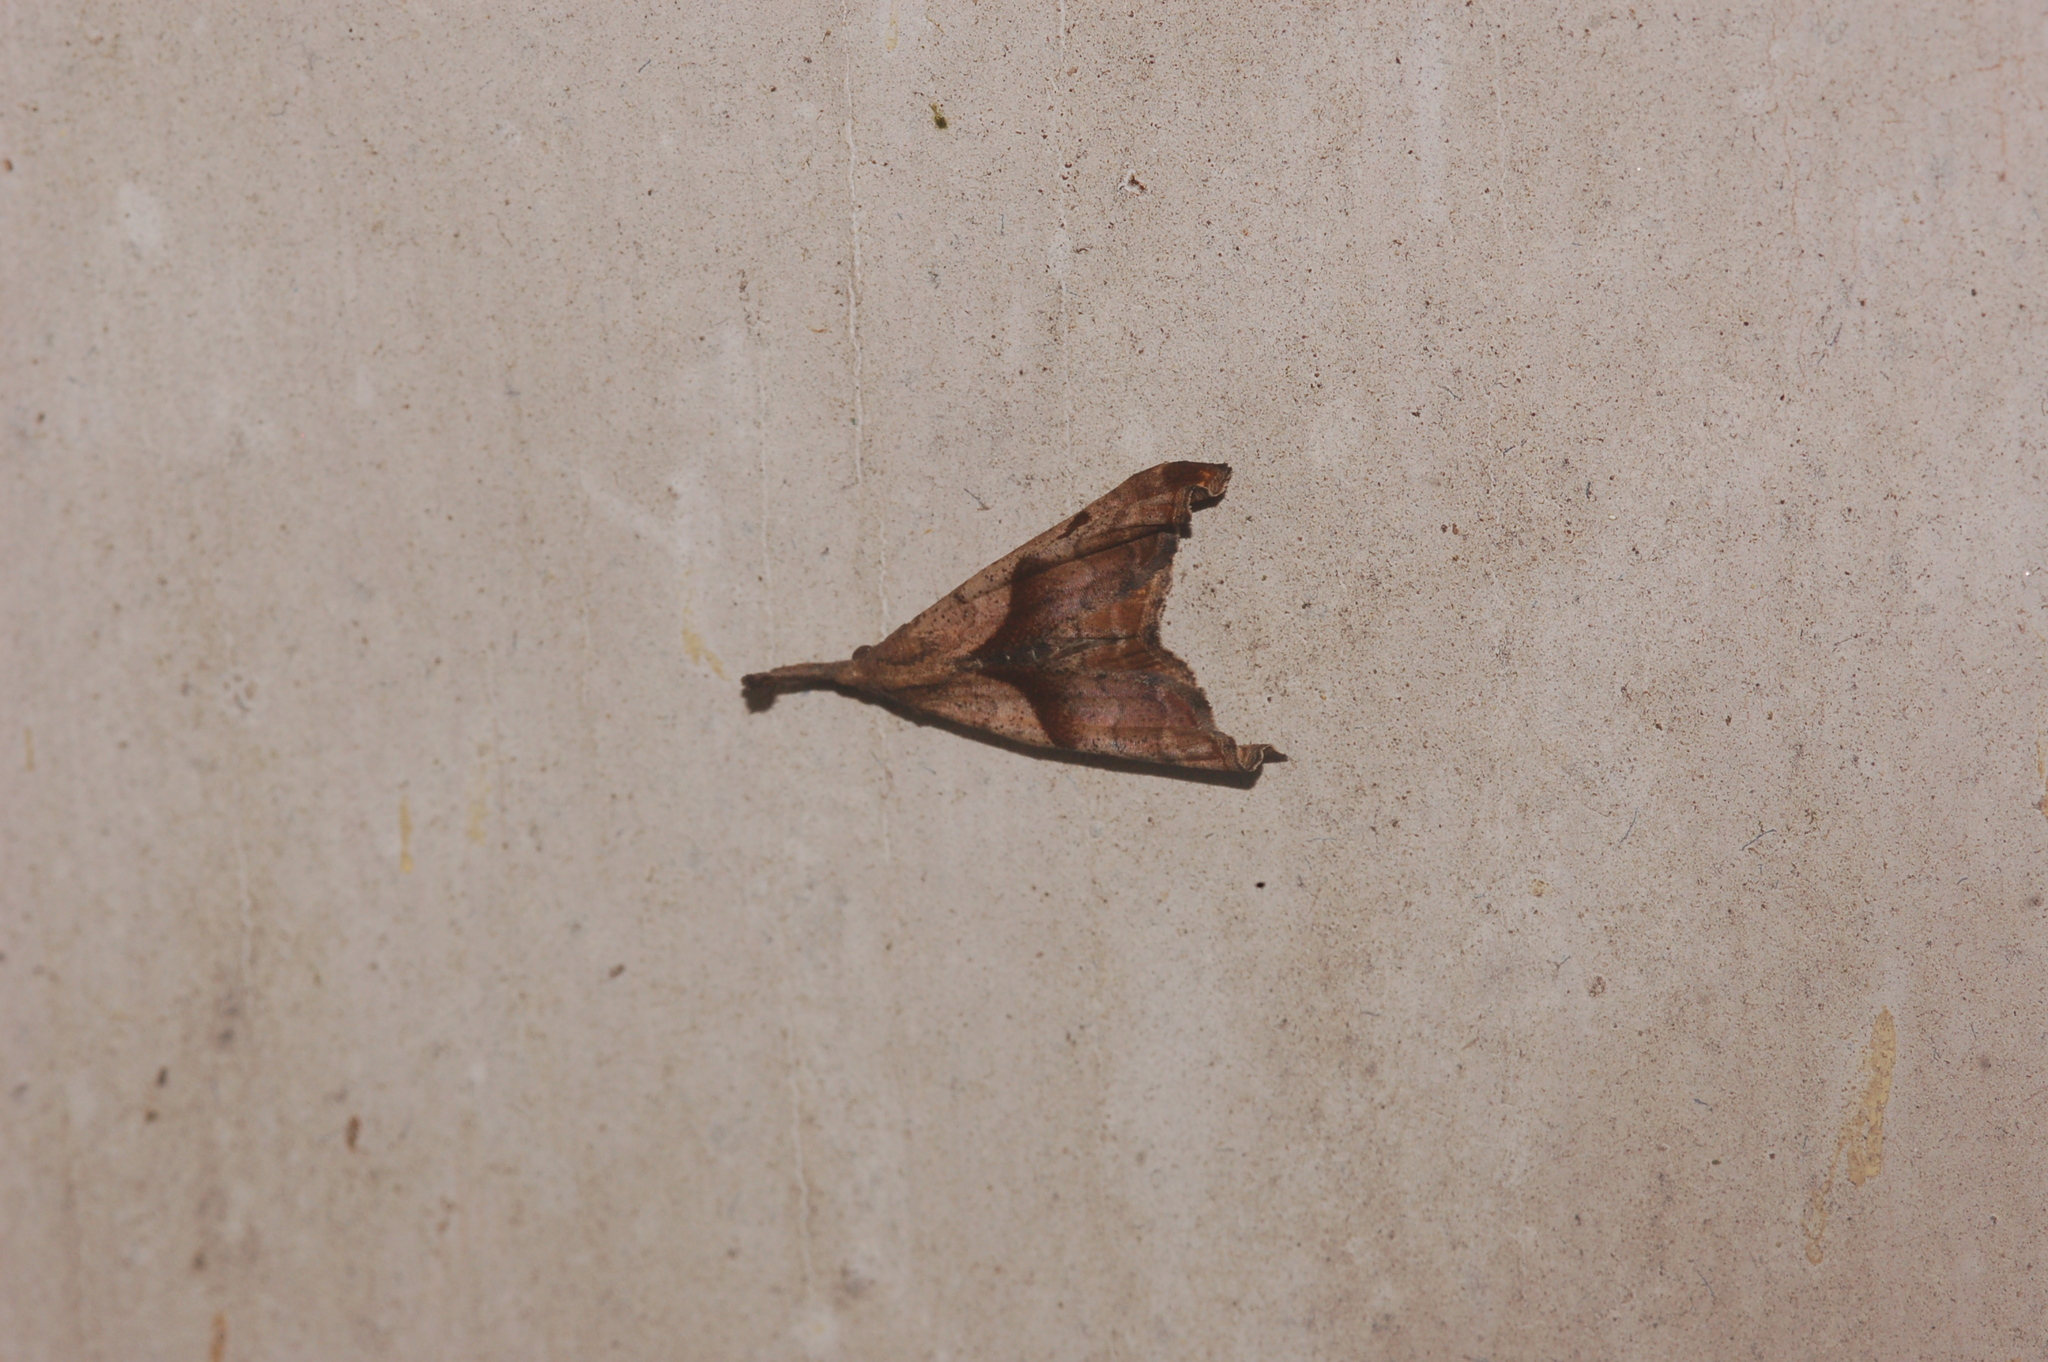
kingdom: Animalia
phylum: Arthropoda
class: Insecta
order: Lepidoptera
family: Erebidae
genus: Palthis
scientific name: Palthis angulalis
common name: Dark-spotted palthis moth
